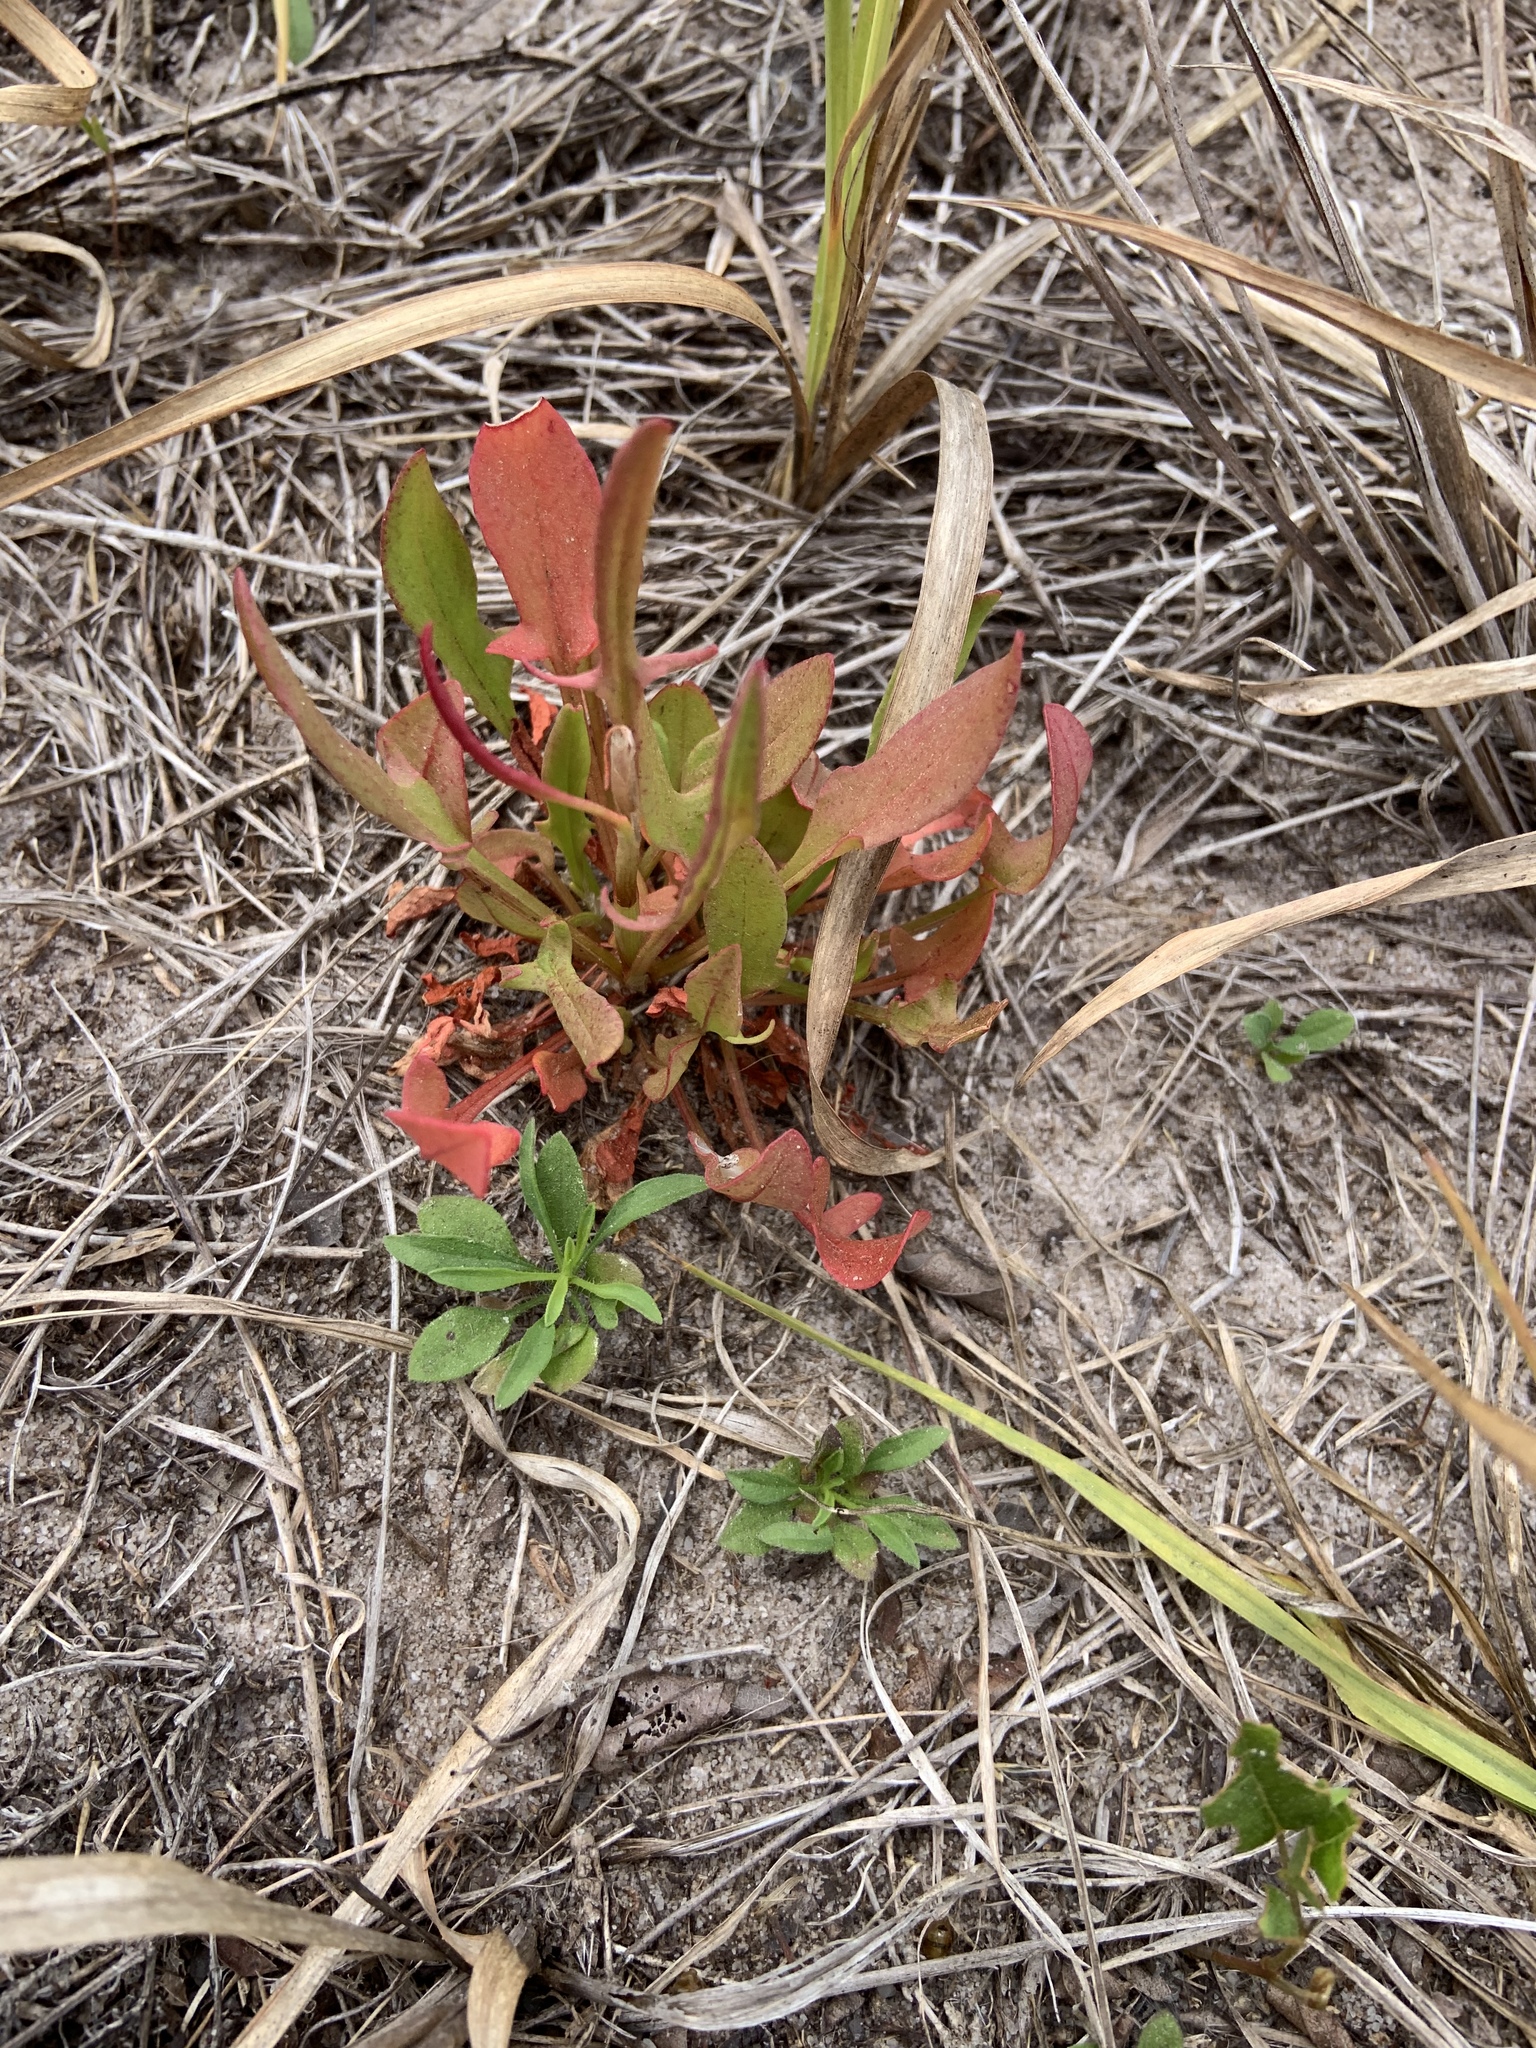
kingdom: Plantae
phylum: Tracheophyta
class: Magnoliopsida
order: Caryophyllales
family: Polygonaceae
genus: Rumex
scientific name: Rumex hastatulus
